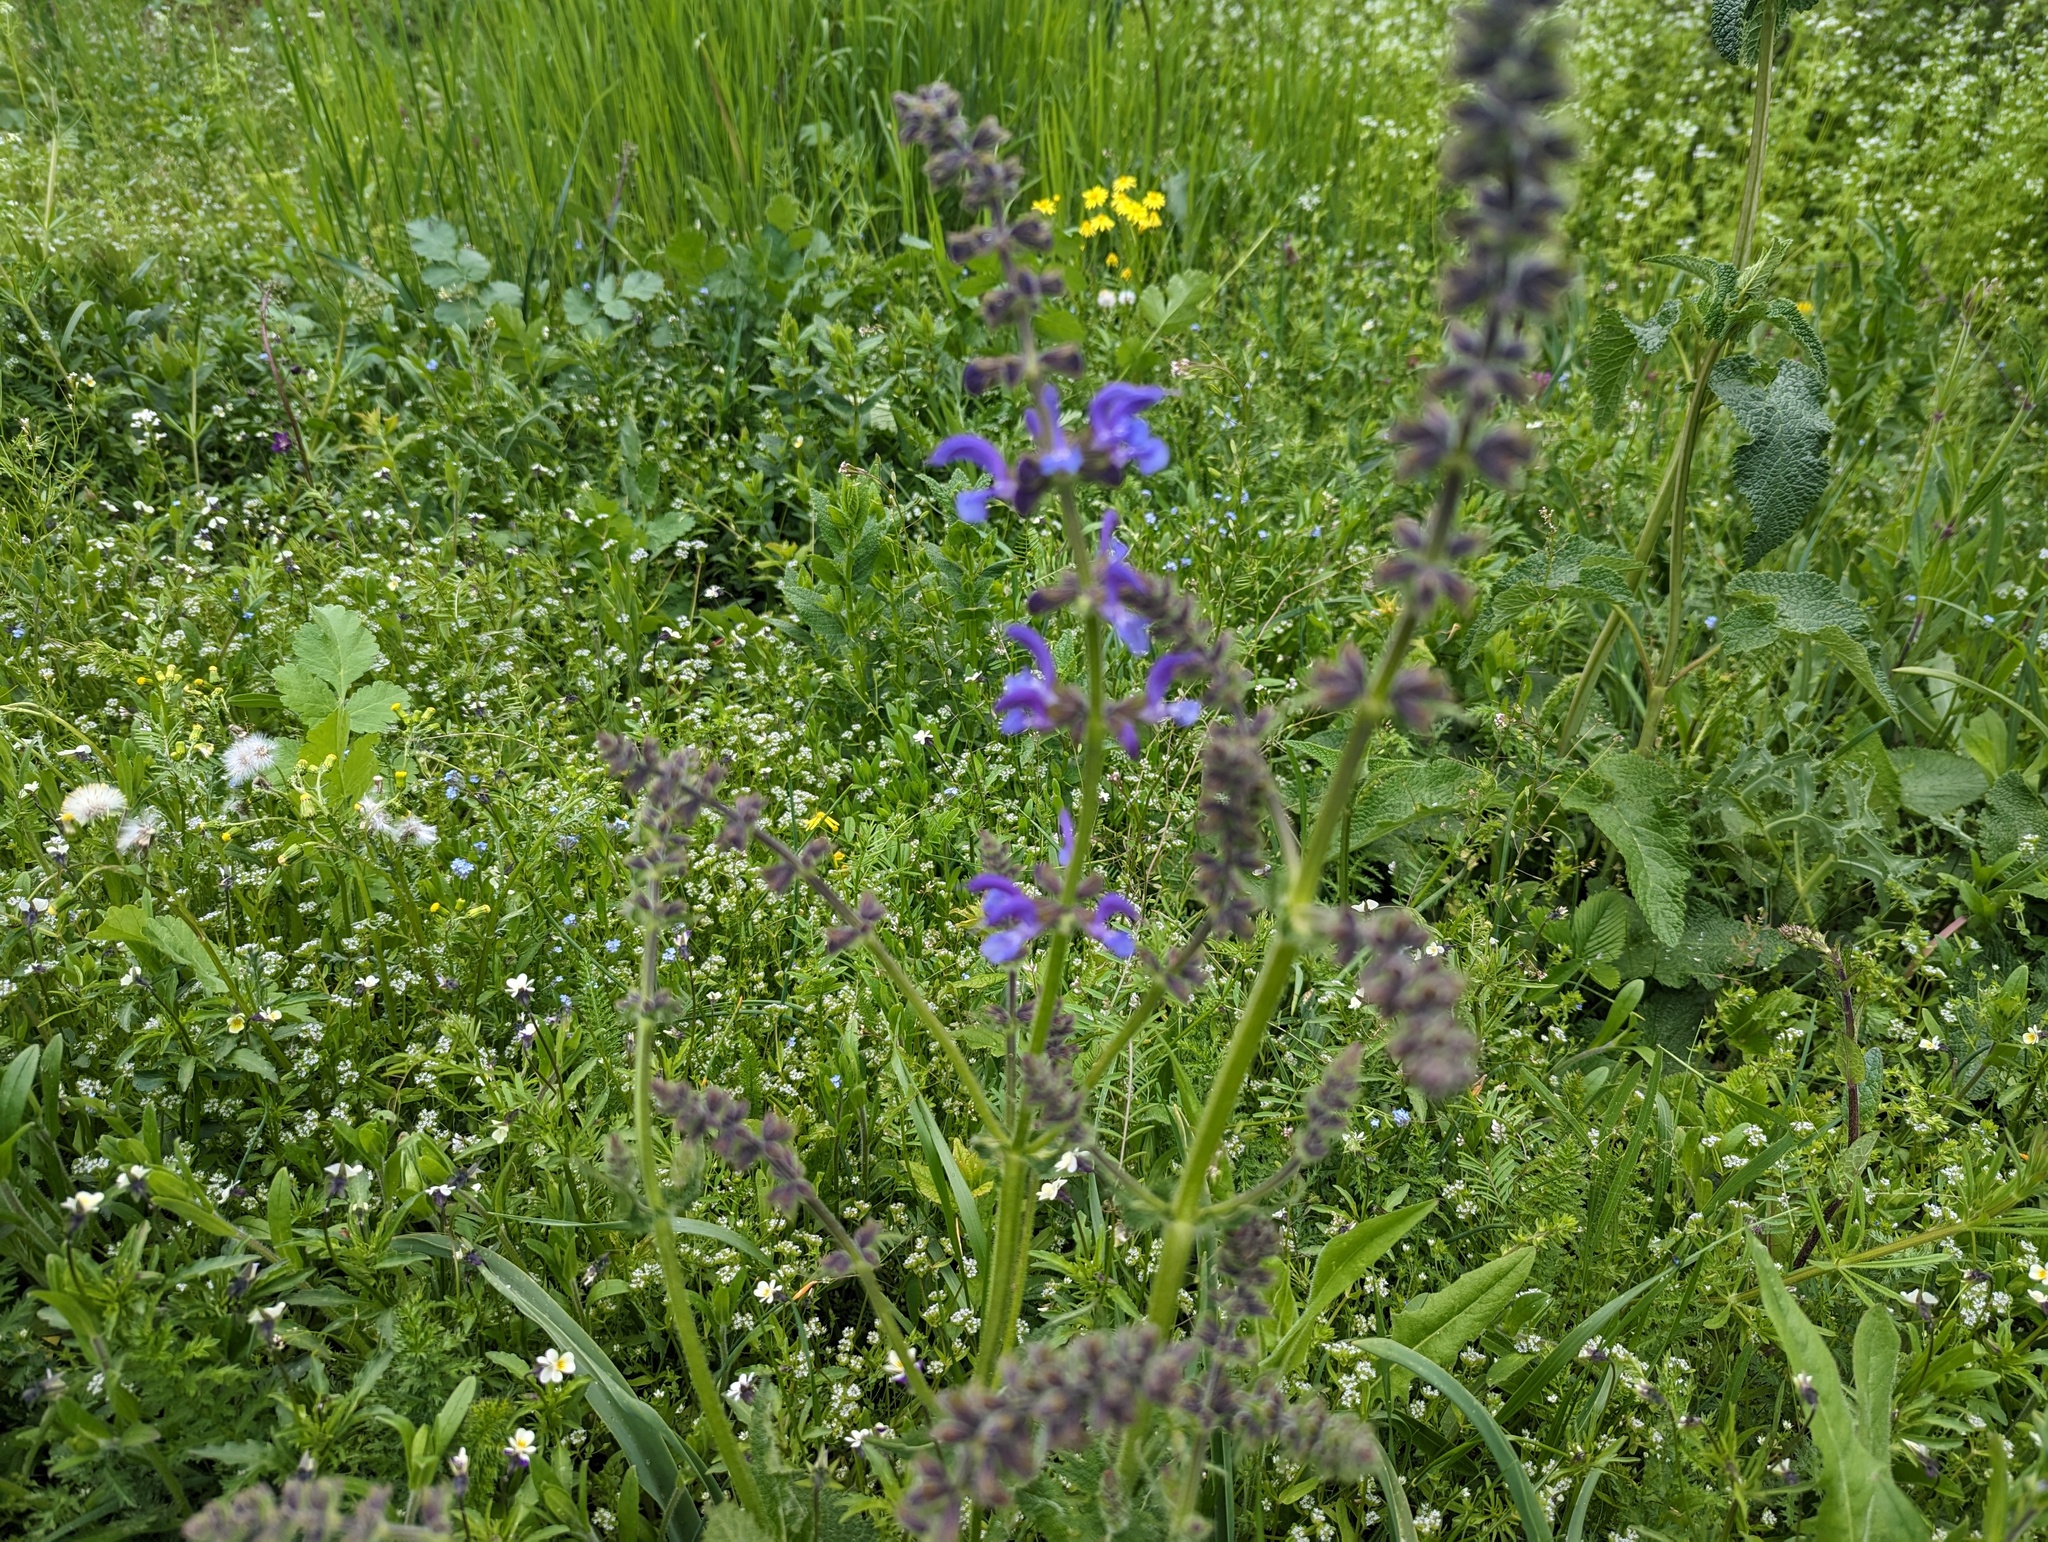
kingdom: Plantae
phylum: Tracheophyta
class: Magnoliopsida
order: Lamiales
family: Lamiaceae
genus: Salvia
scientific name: Salvia pratensis
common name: Meadow sage
